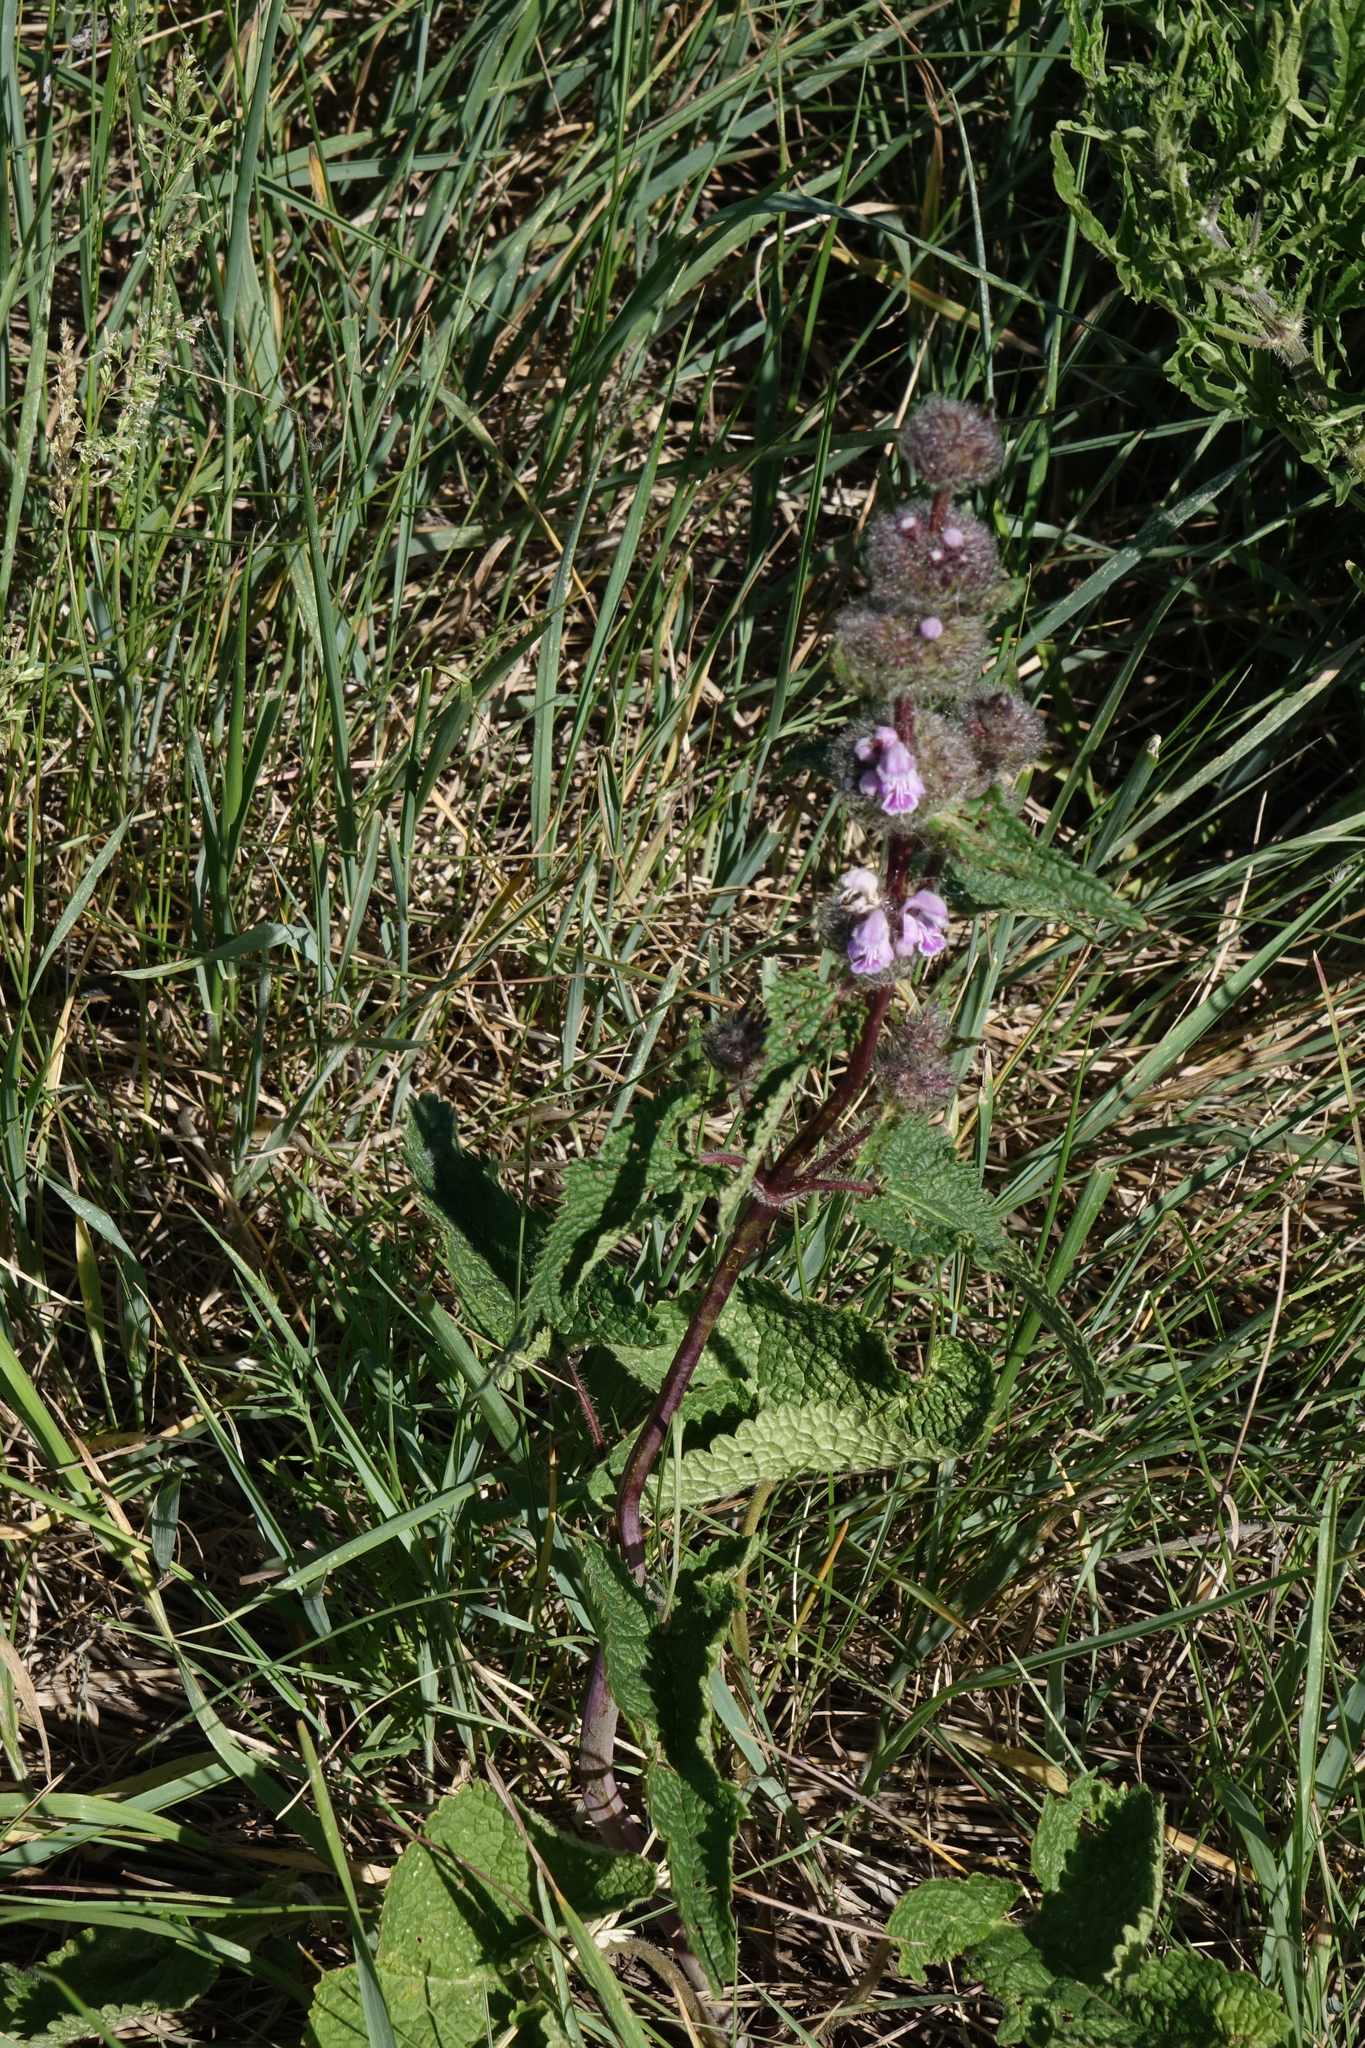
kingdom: Plantae
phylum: Tracheophyta
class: Magnoliopsida
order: Lamiales
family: Lamiaceae
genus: Phlomoides
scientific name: Phlomoides tuberosa
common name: Tuberous jerusalem sage
